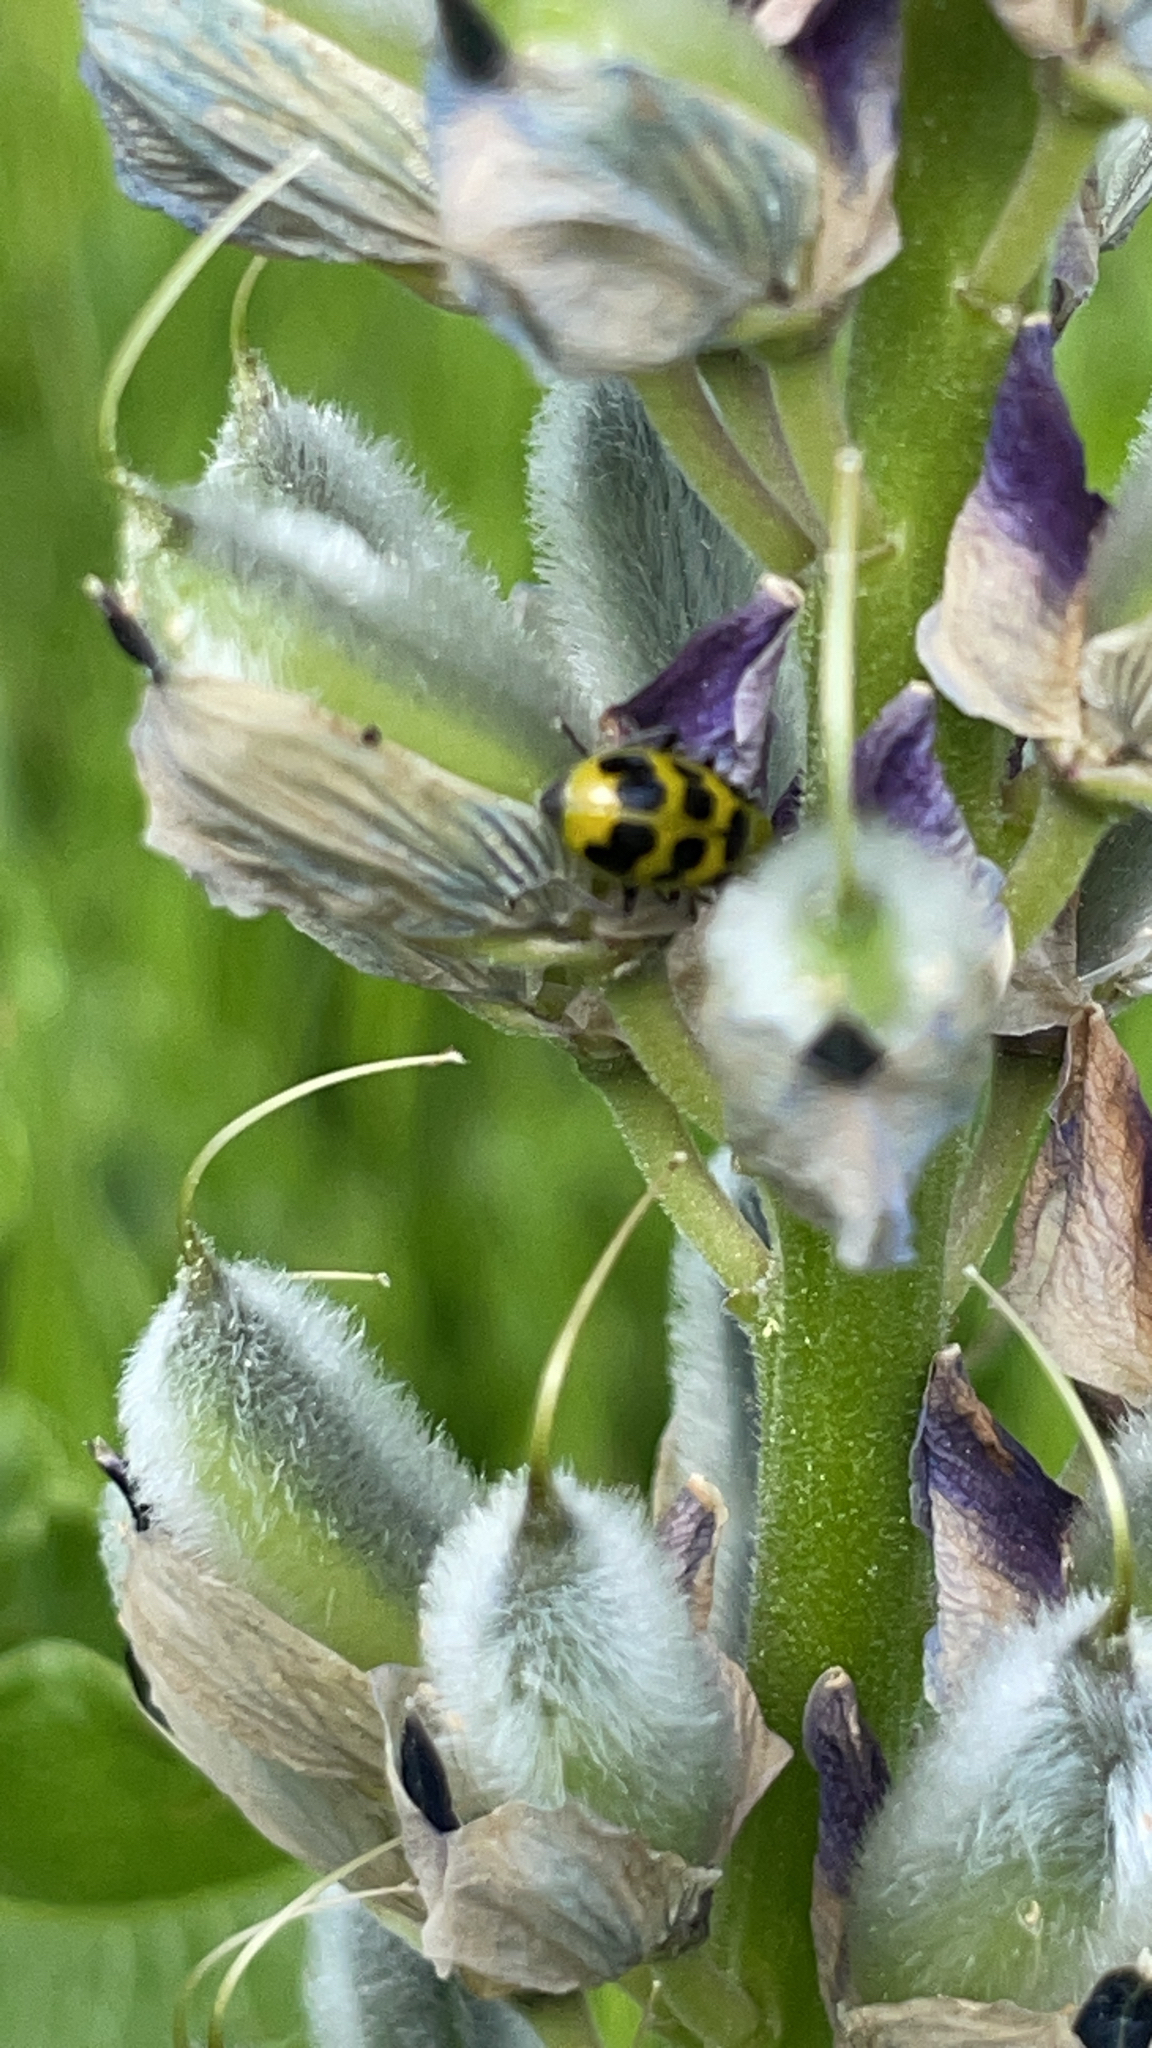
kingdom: Animalia
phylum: Arthropoda
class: Insecta
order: Coleoptera
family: Chrysomelidae
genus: Diabrotica
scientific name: Diabrotica undecimpunctata
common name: Spotted cucumber beetle
